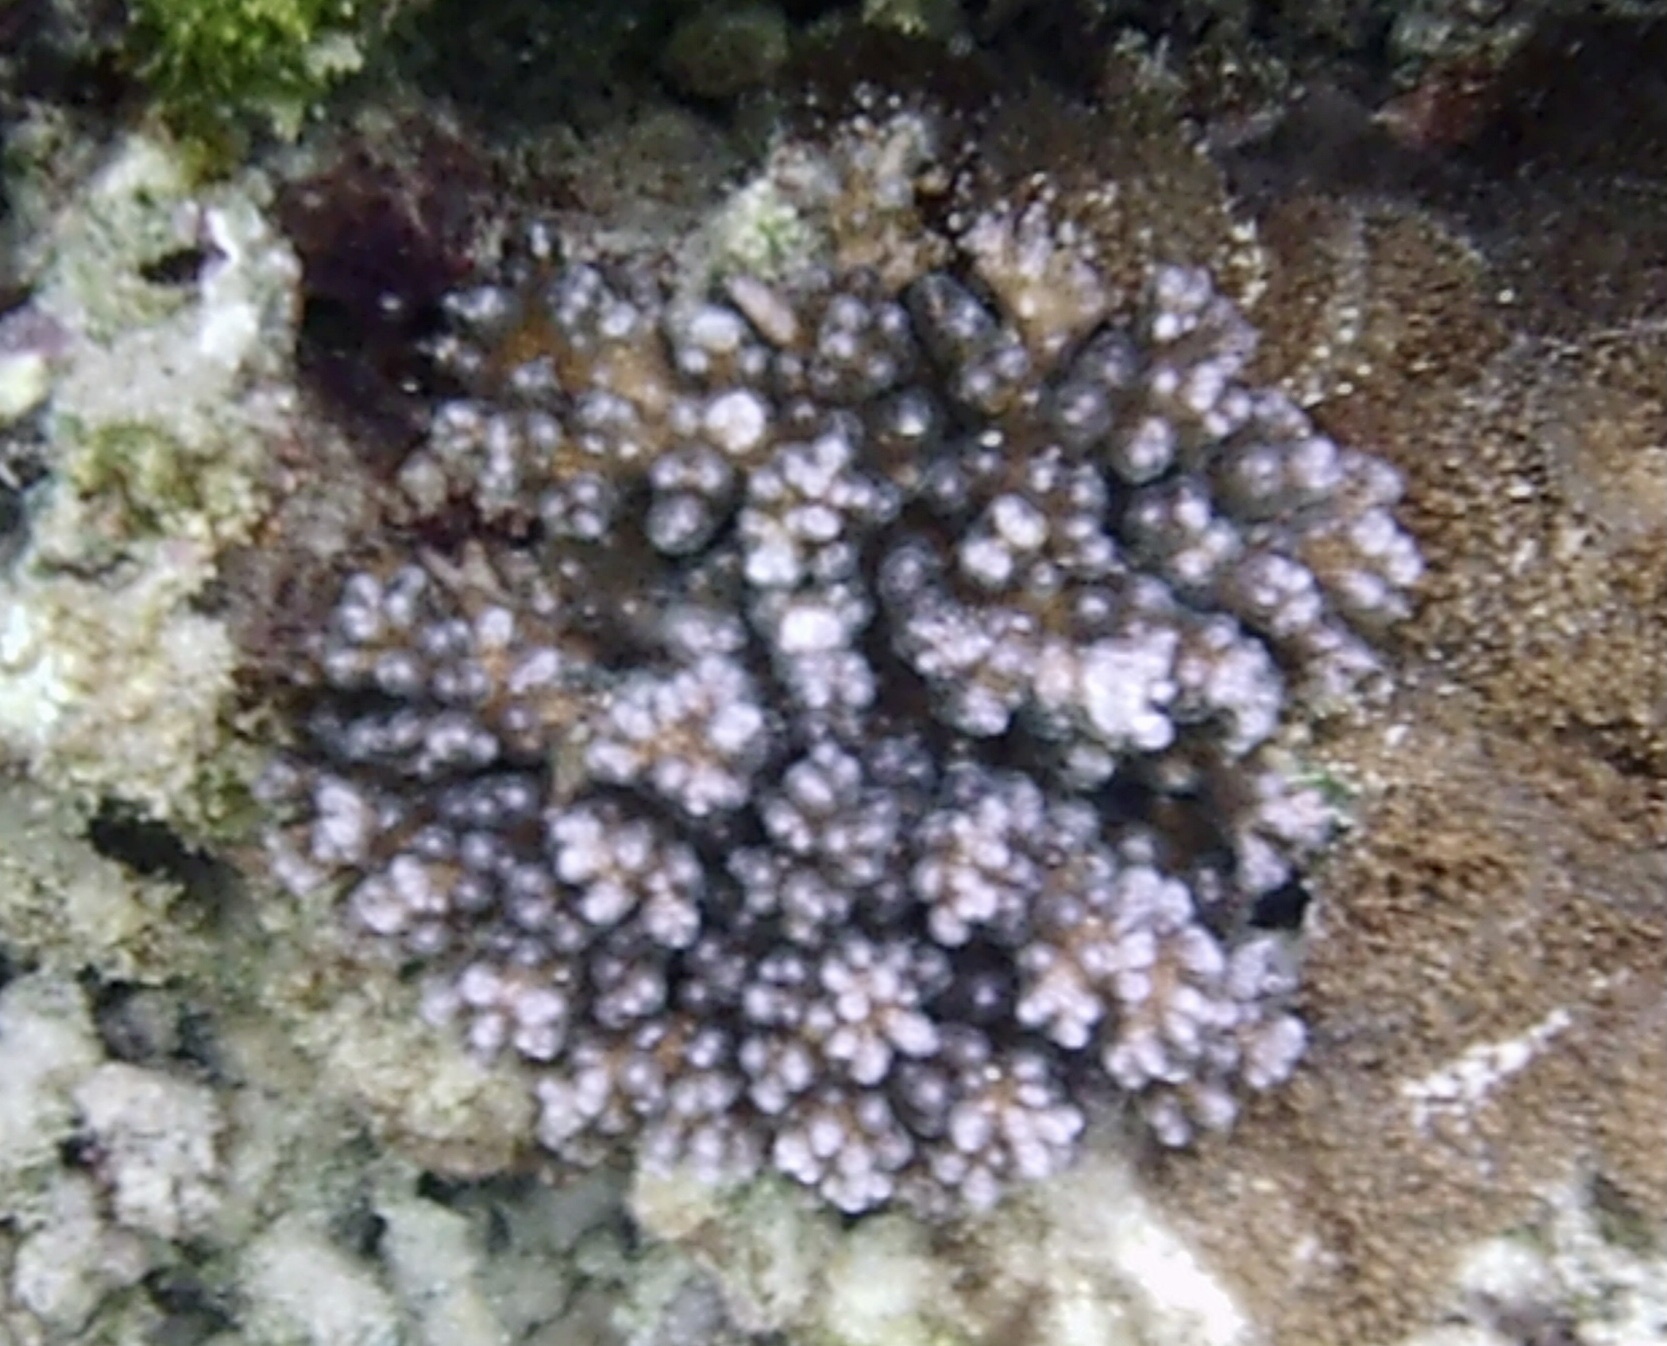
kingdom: Animalia
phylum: Cnidaria
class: Anthozoa
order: Scleractinia
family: Pocilloporidae
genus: Pocillopora
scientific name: Pocillopora damicornis
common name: Cauliflower coral
